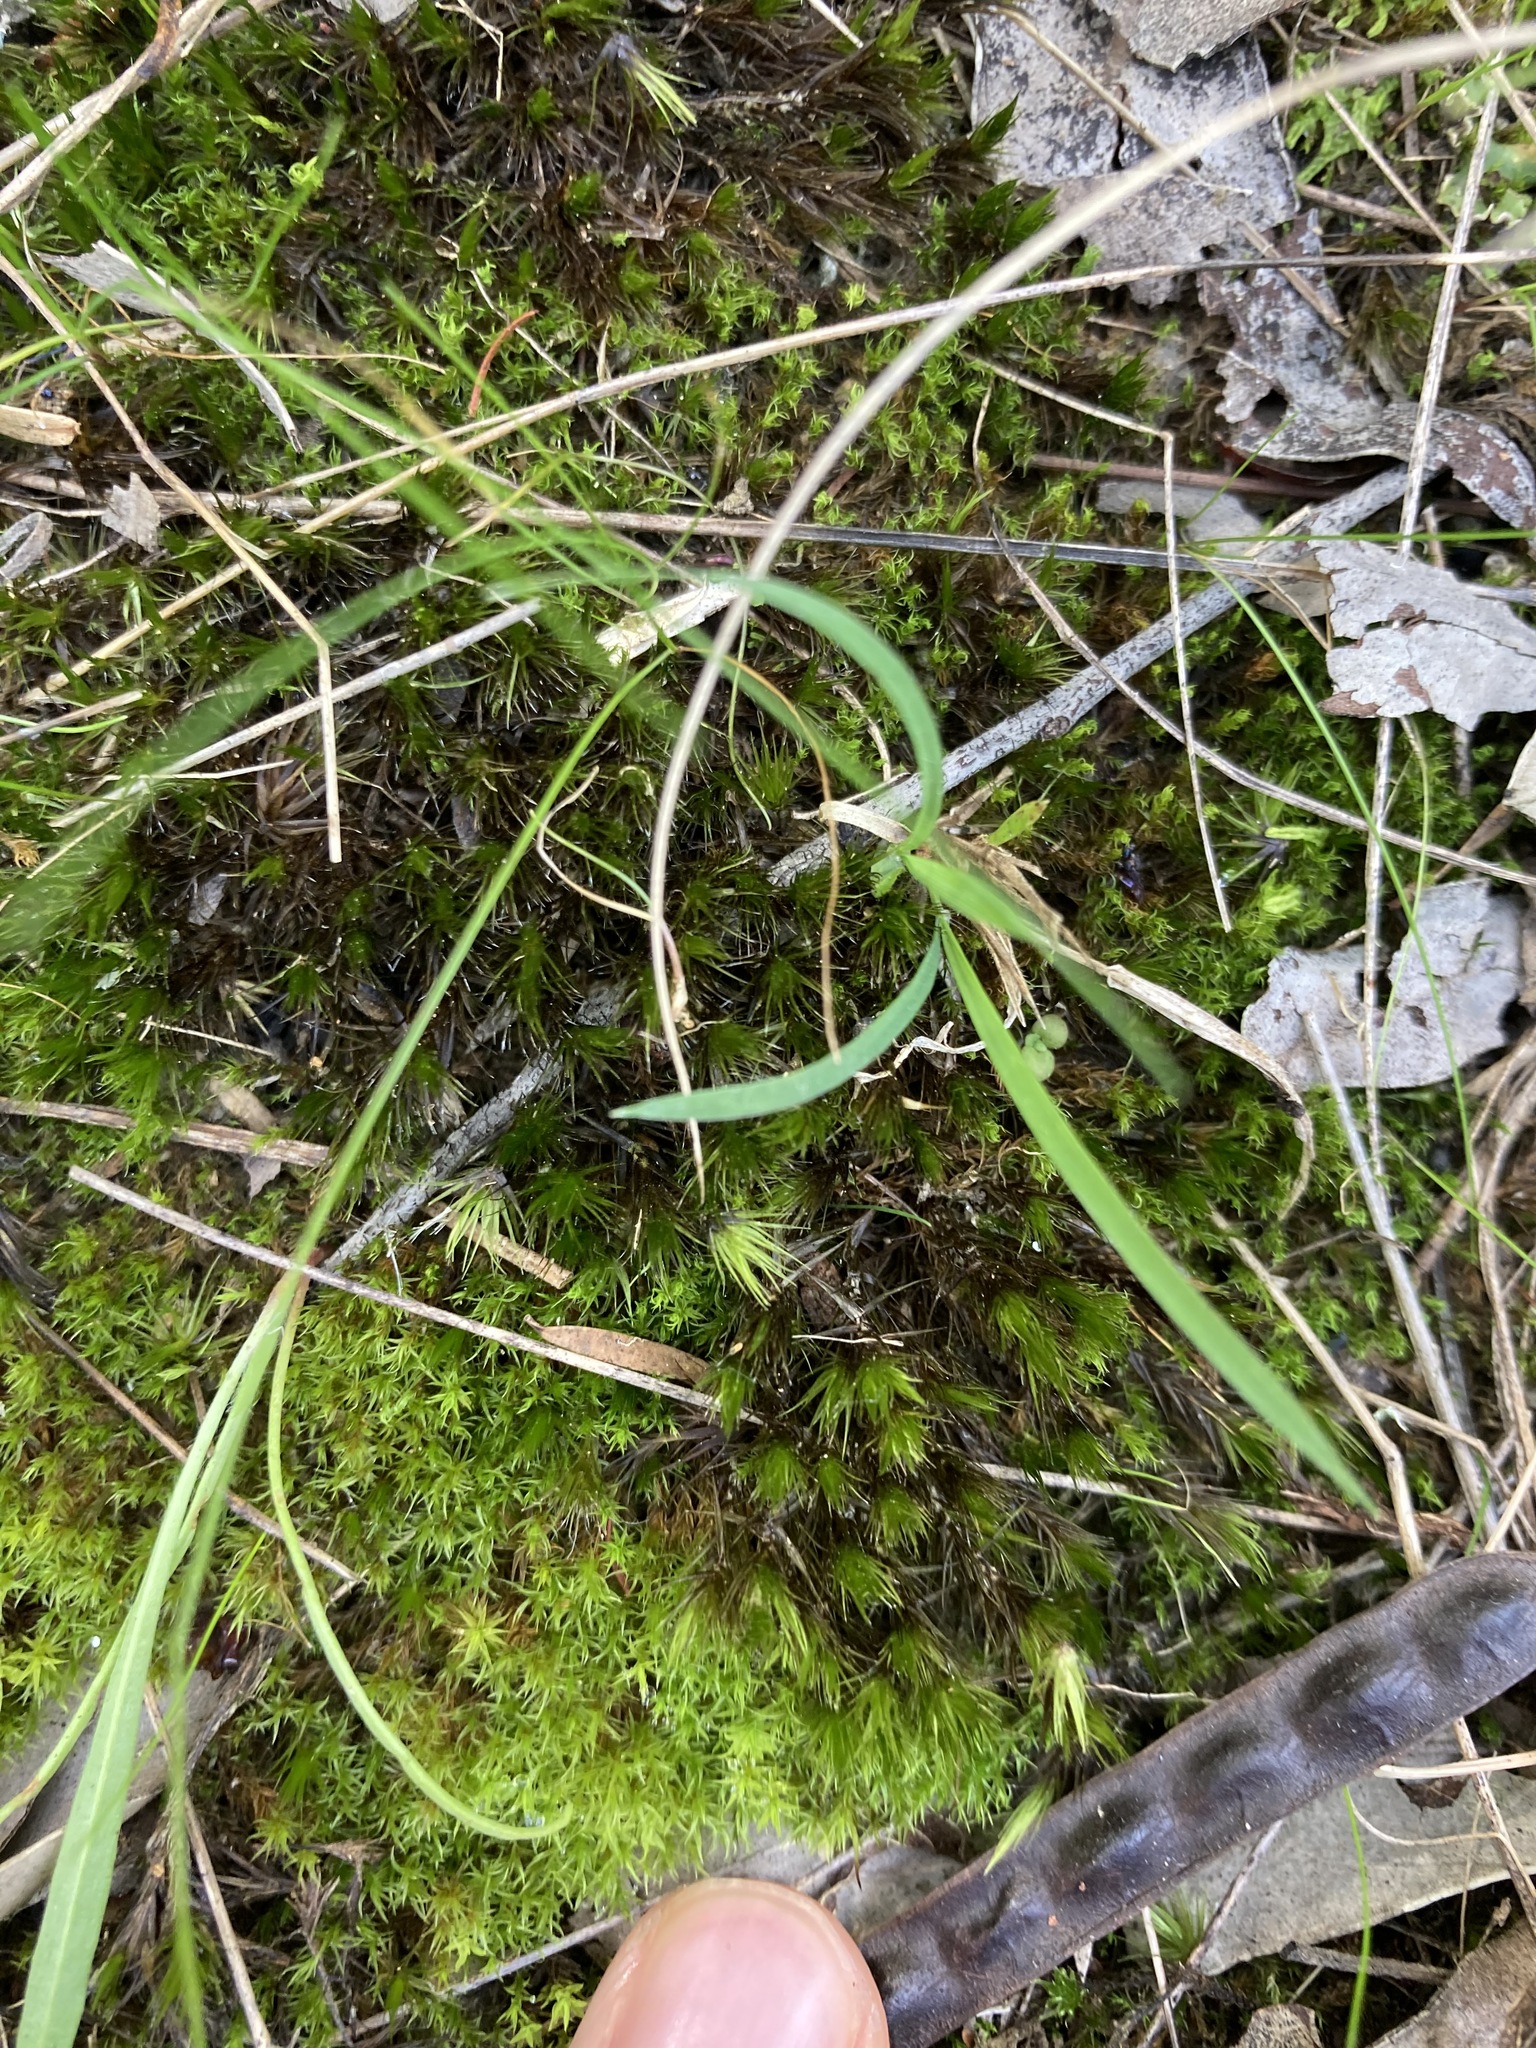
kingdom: Plantae
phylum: Bryophyta
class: Bryopsida
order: Dicranales
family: Leucobryaceae
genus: Campylopus
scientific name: Campylopus introflexus
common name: Heath star moss
